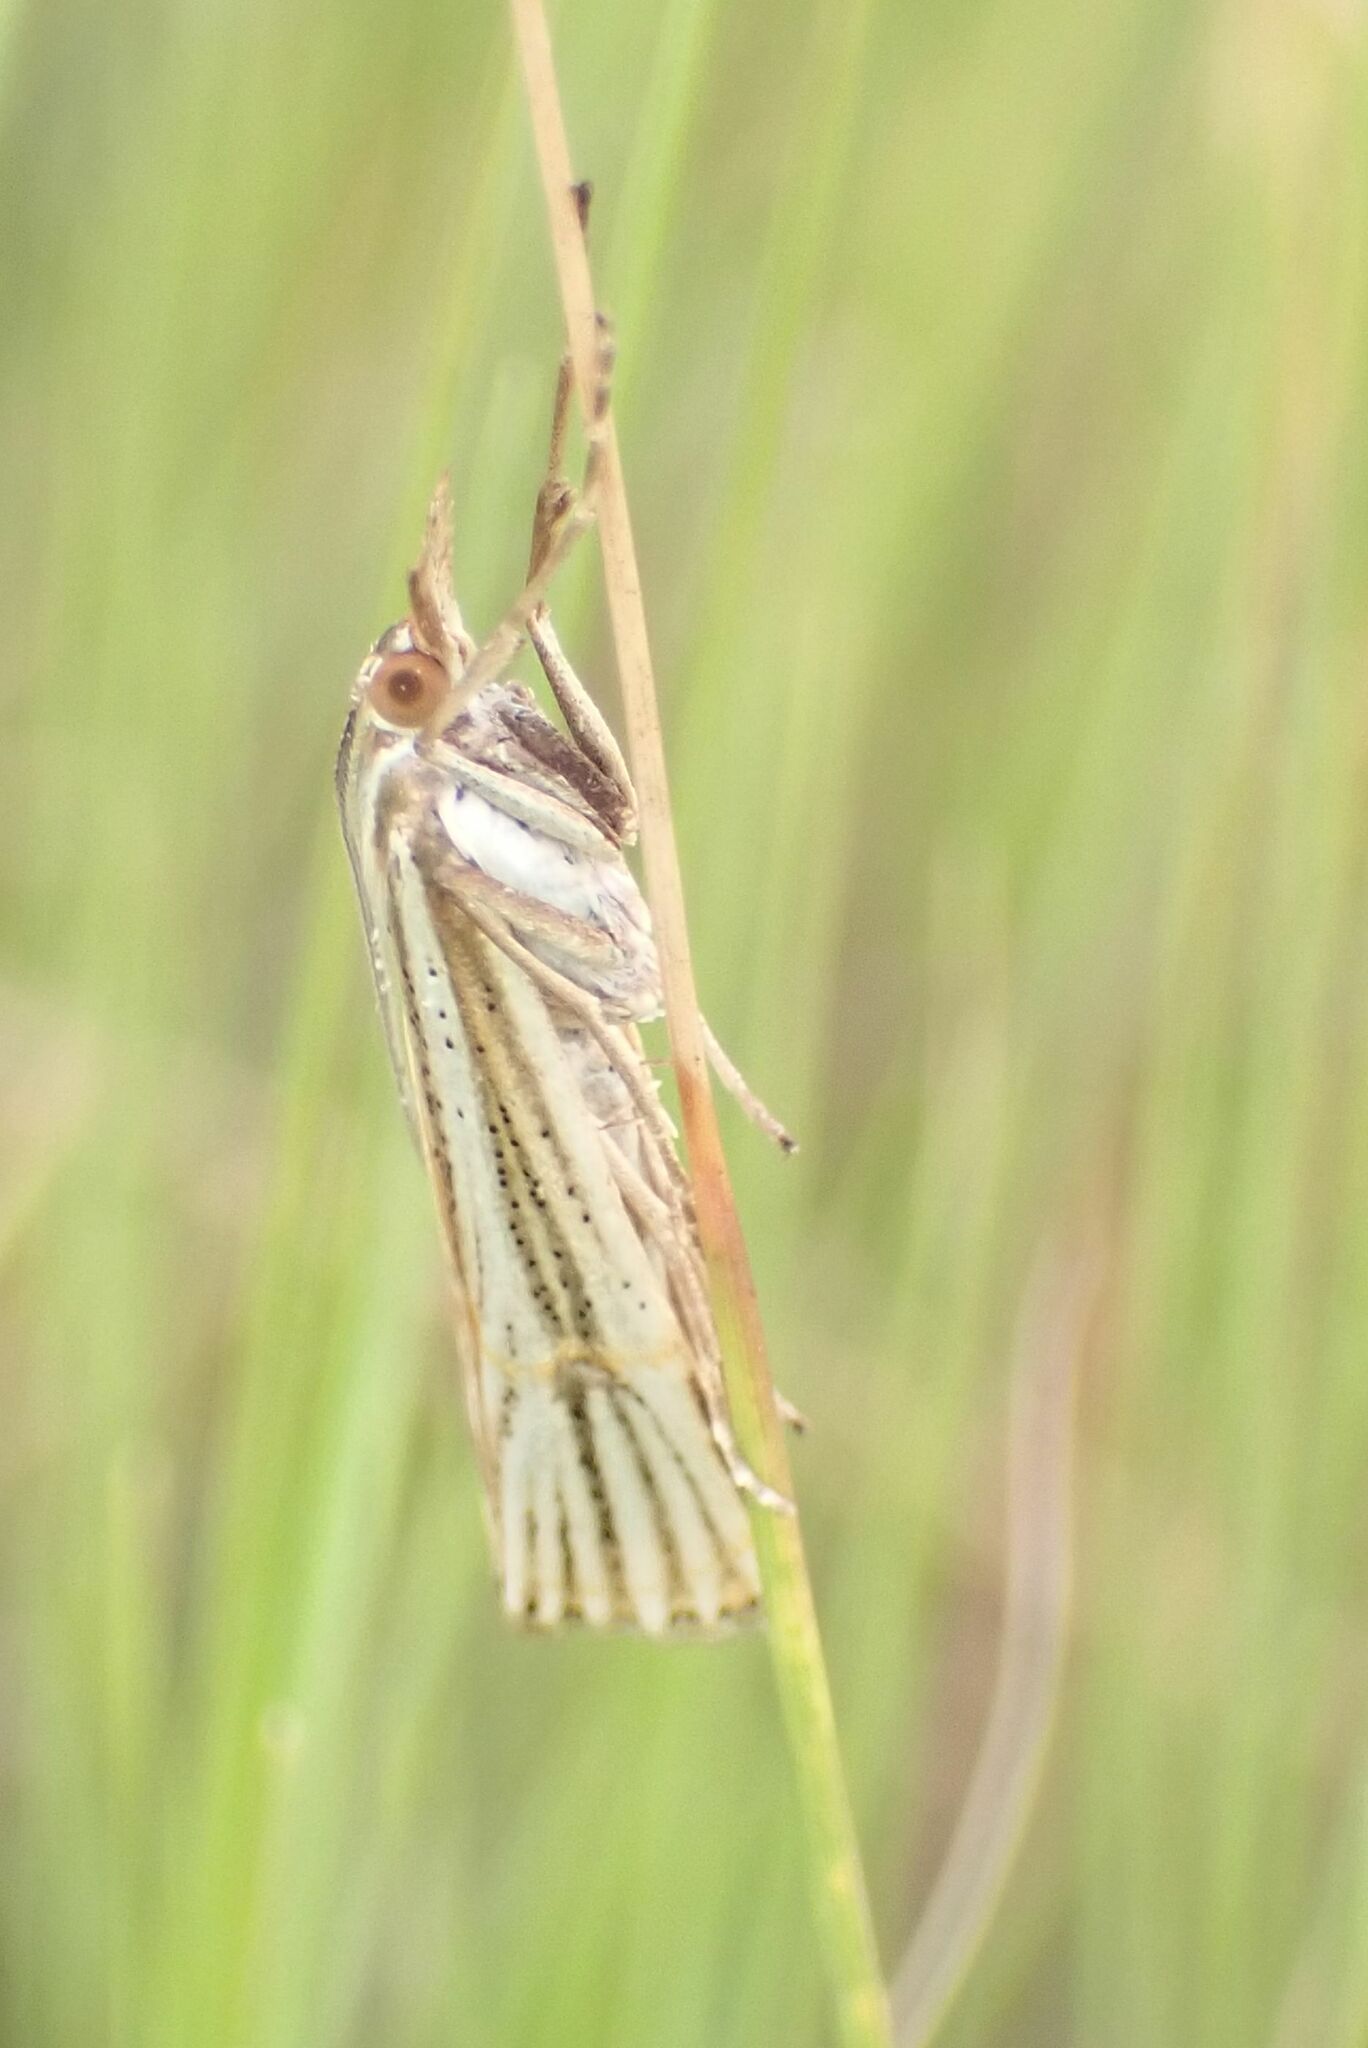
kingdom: Animalia
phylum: Arthropoda
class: Insecta
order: Lepidoptera
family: Crambidae
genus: Conotalis
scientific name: Conotalis nigrisquamalis
